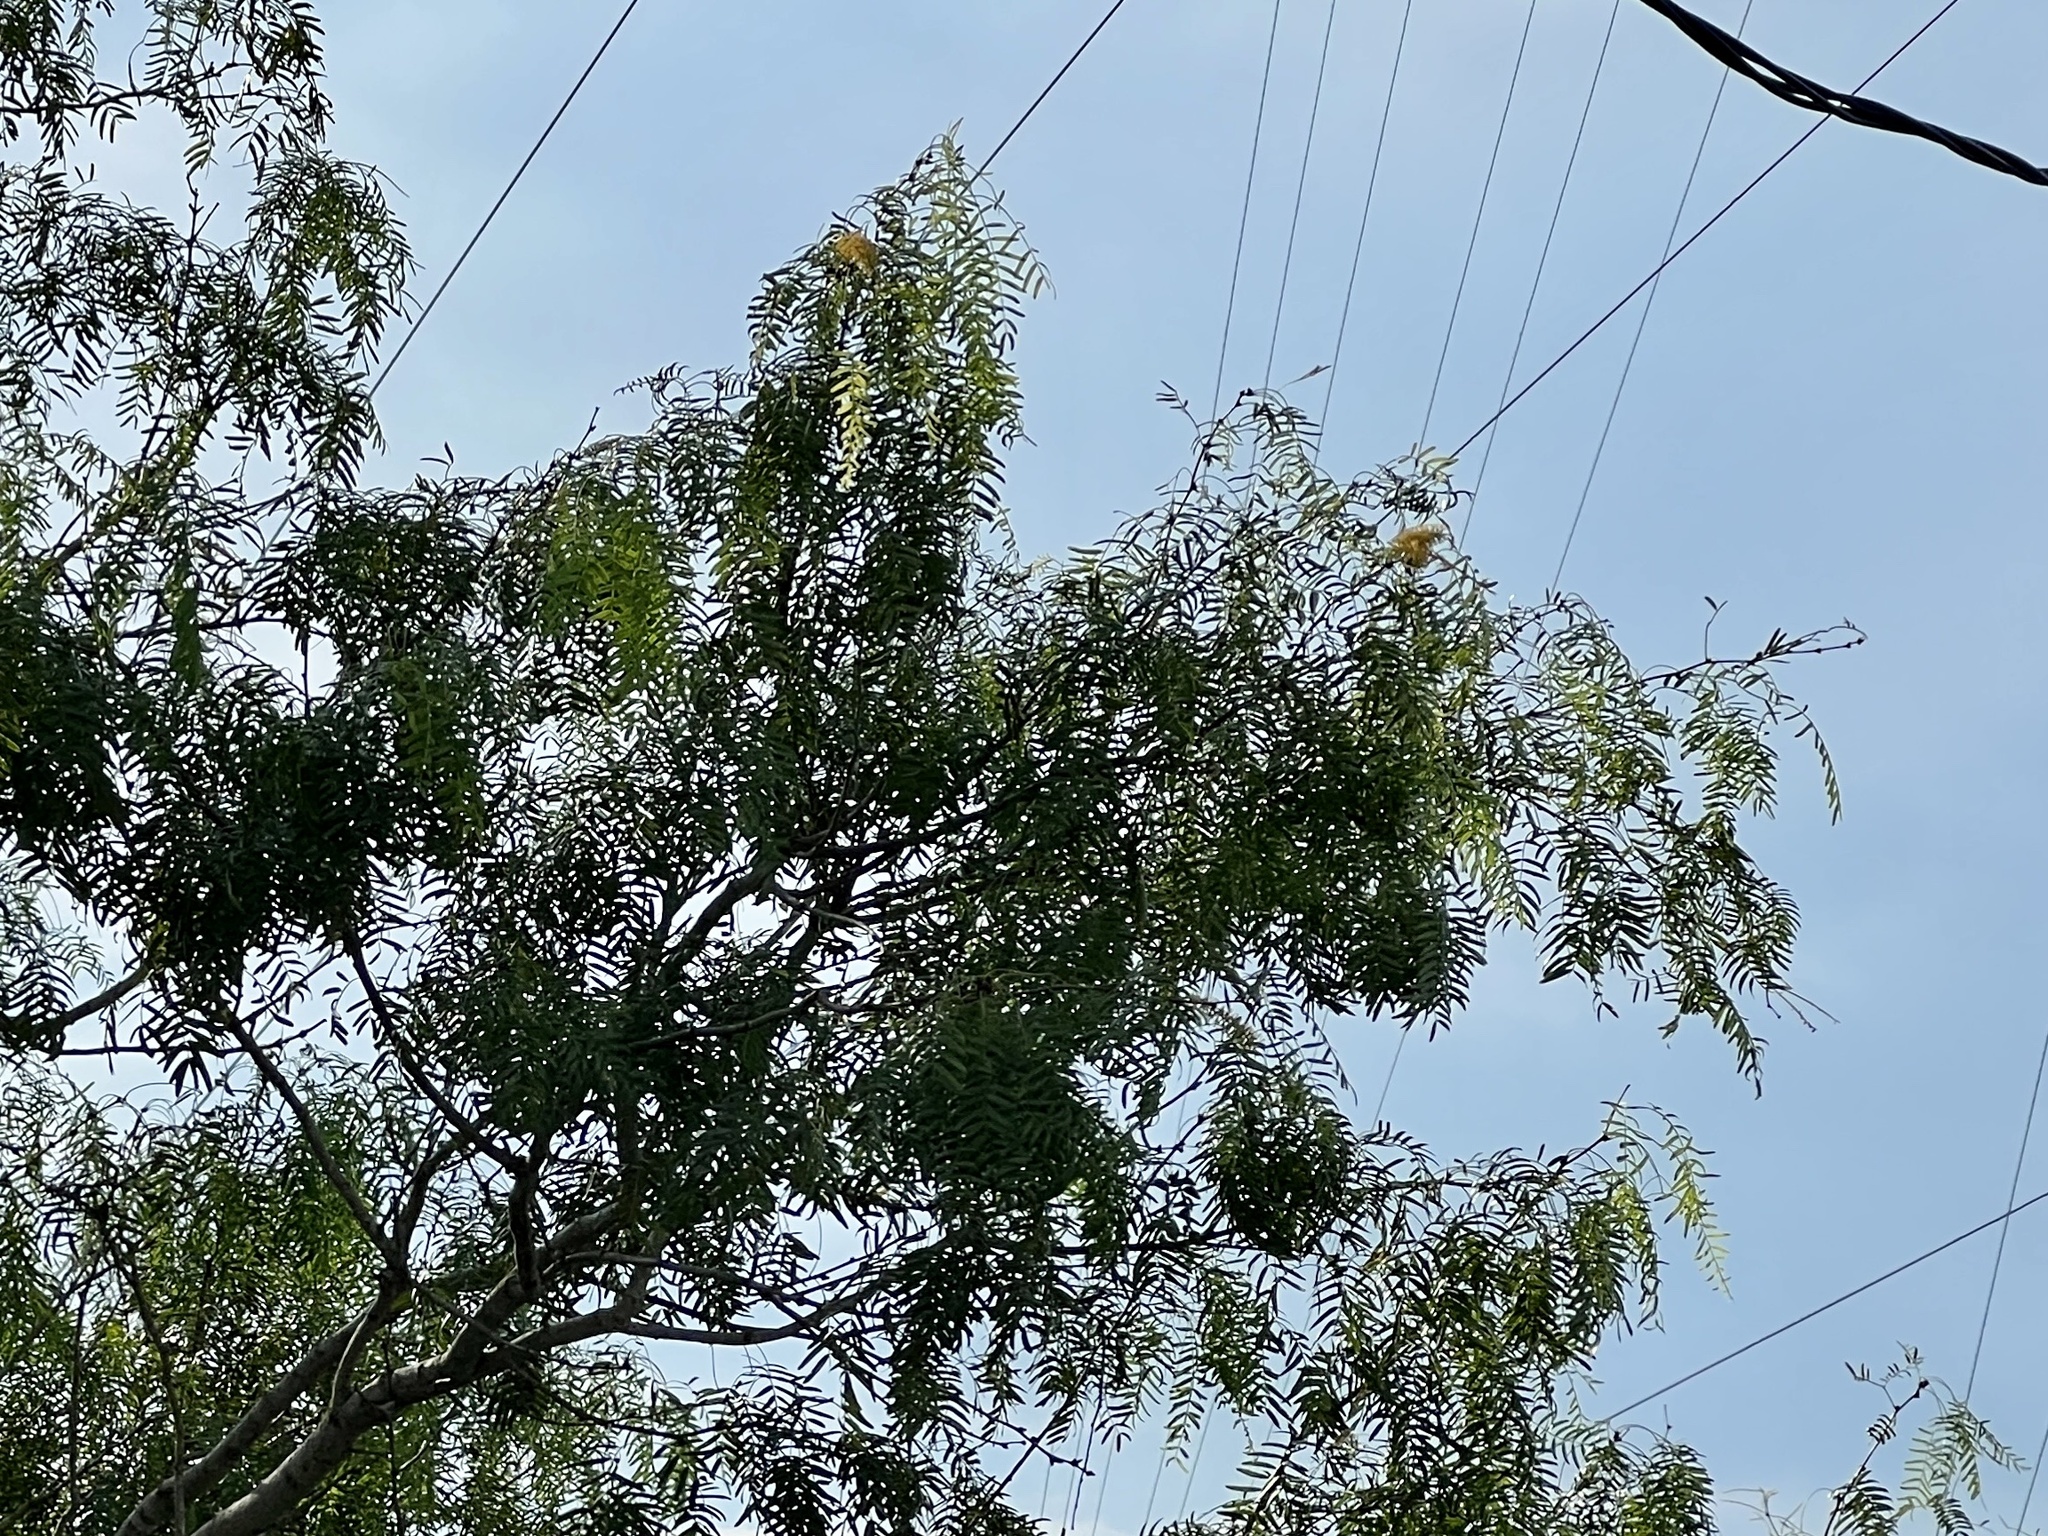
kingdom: Plantae
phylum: Tracheophyta
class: Magnoliopsida
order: Fabales
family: Fabaceae
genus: Prosopis
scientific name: Prosopis glandulosa
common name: Honey mesquite
